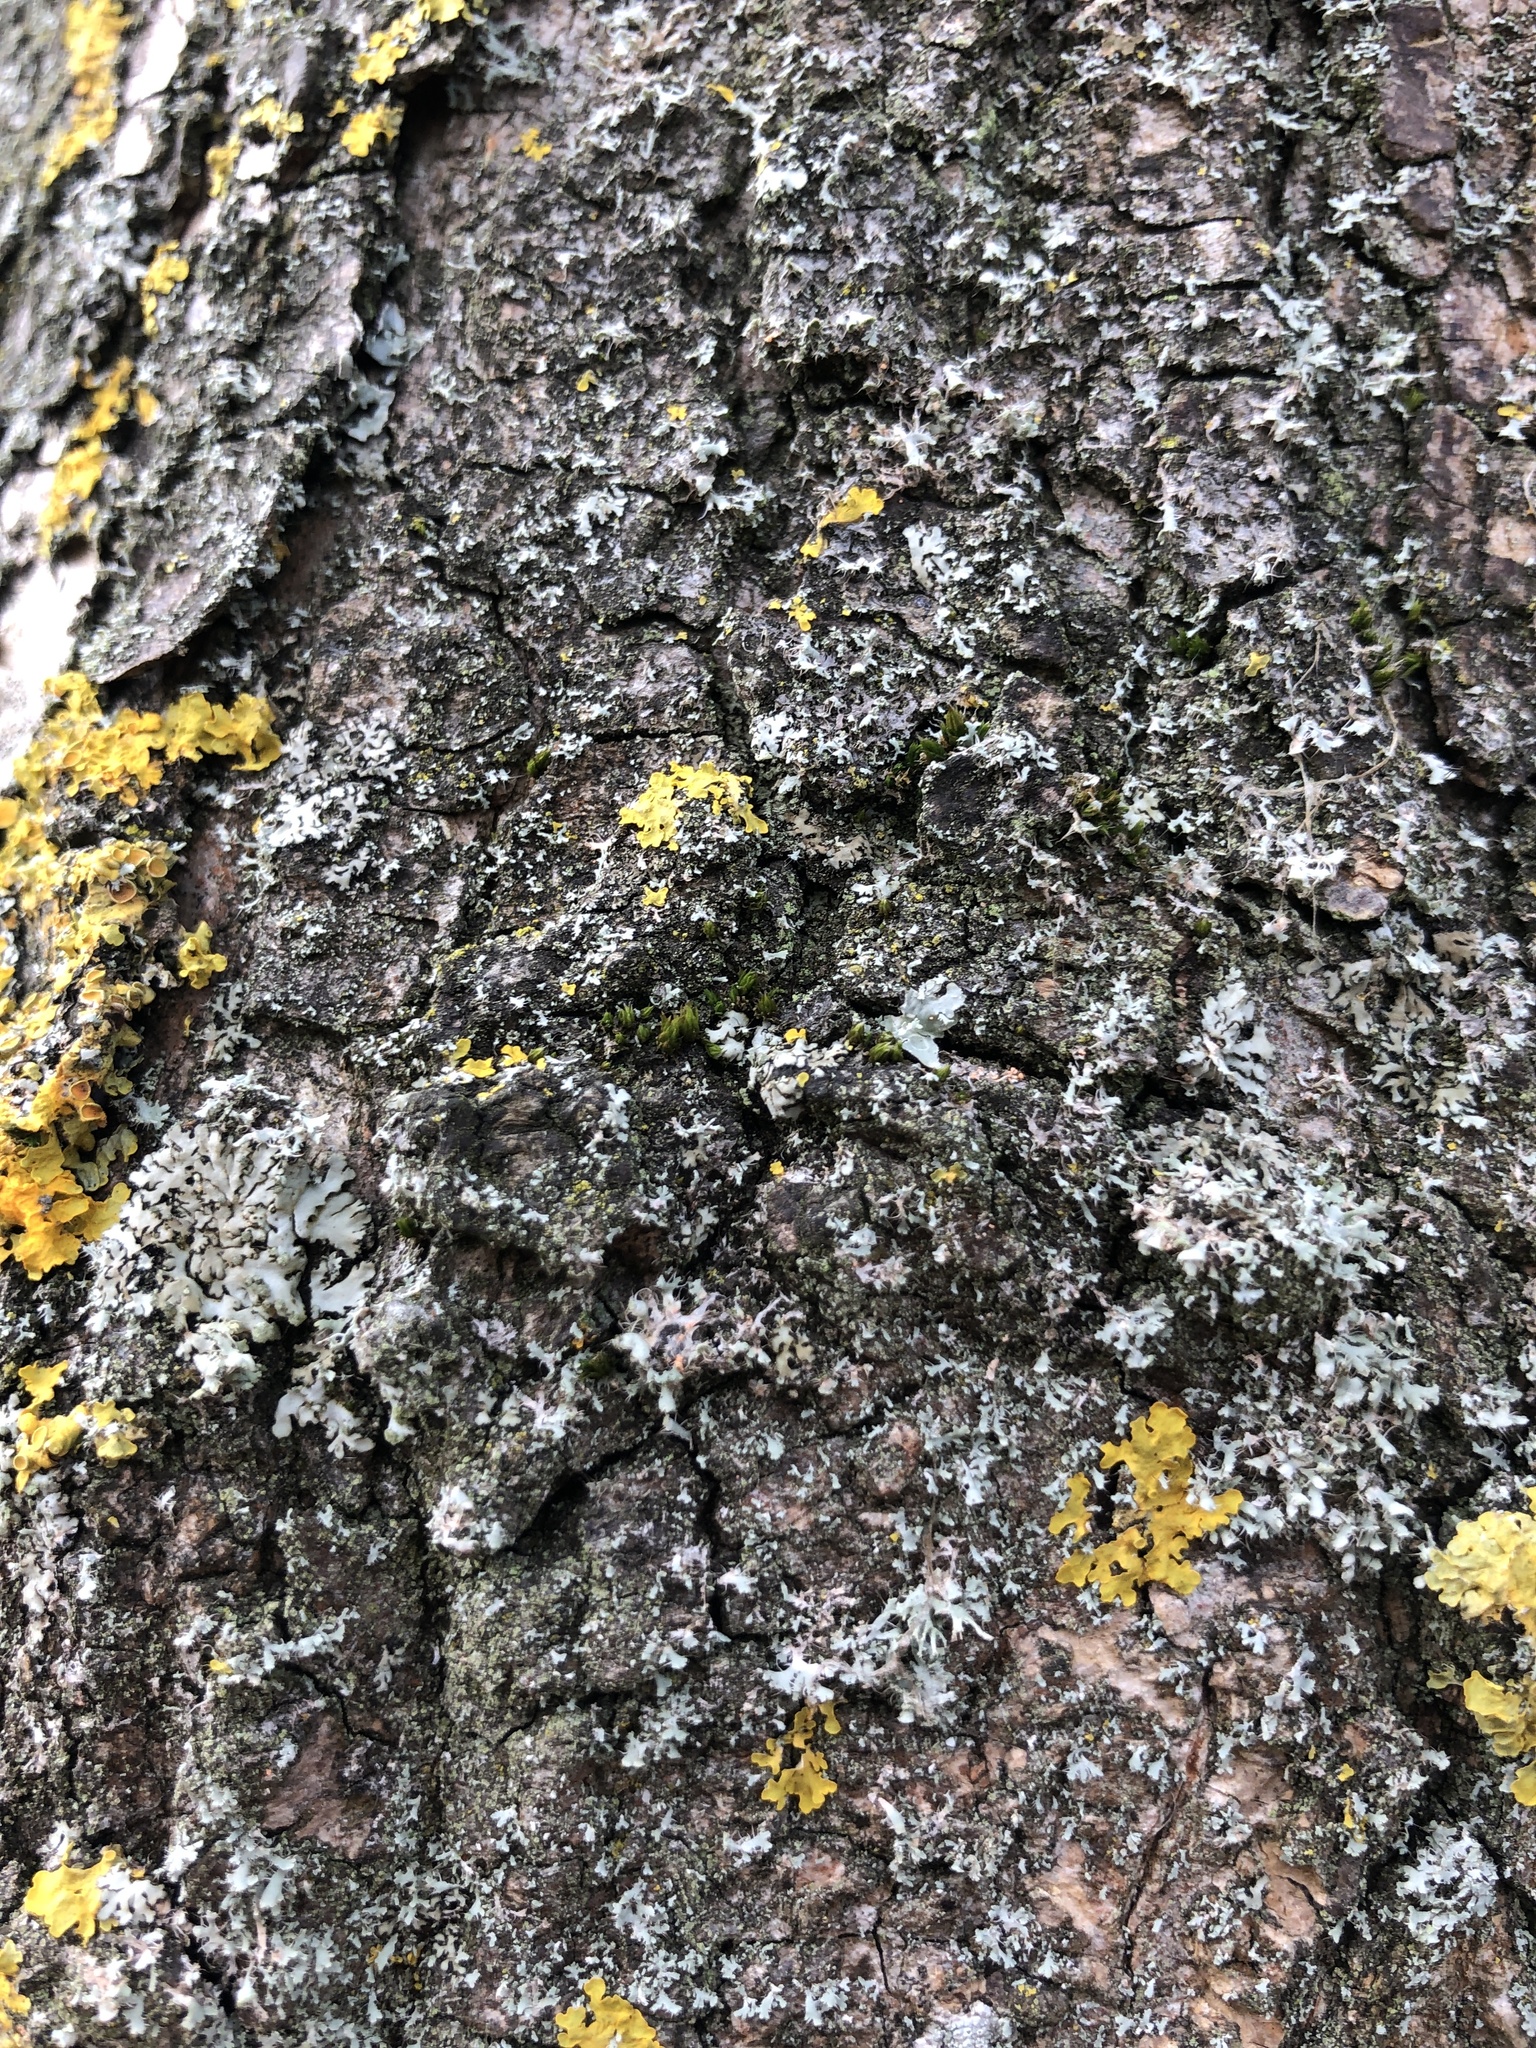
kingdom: Plantae
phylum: Bryophyta
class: Bryopsida
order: Orthotrichales
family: Orthotrichaceae
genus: Orthotrichum
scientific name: Orthotrichum diaphanum
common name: White-tipped bristle-moss
